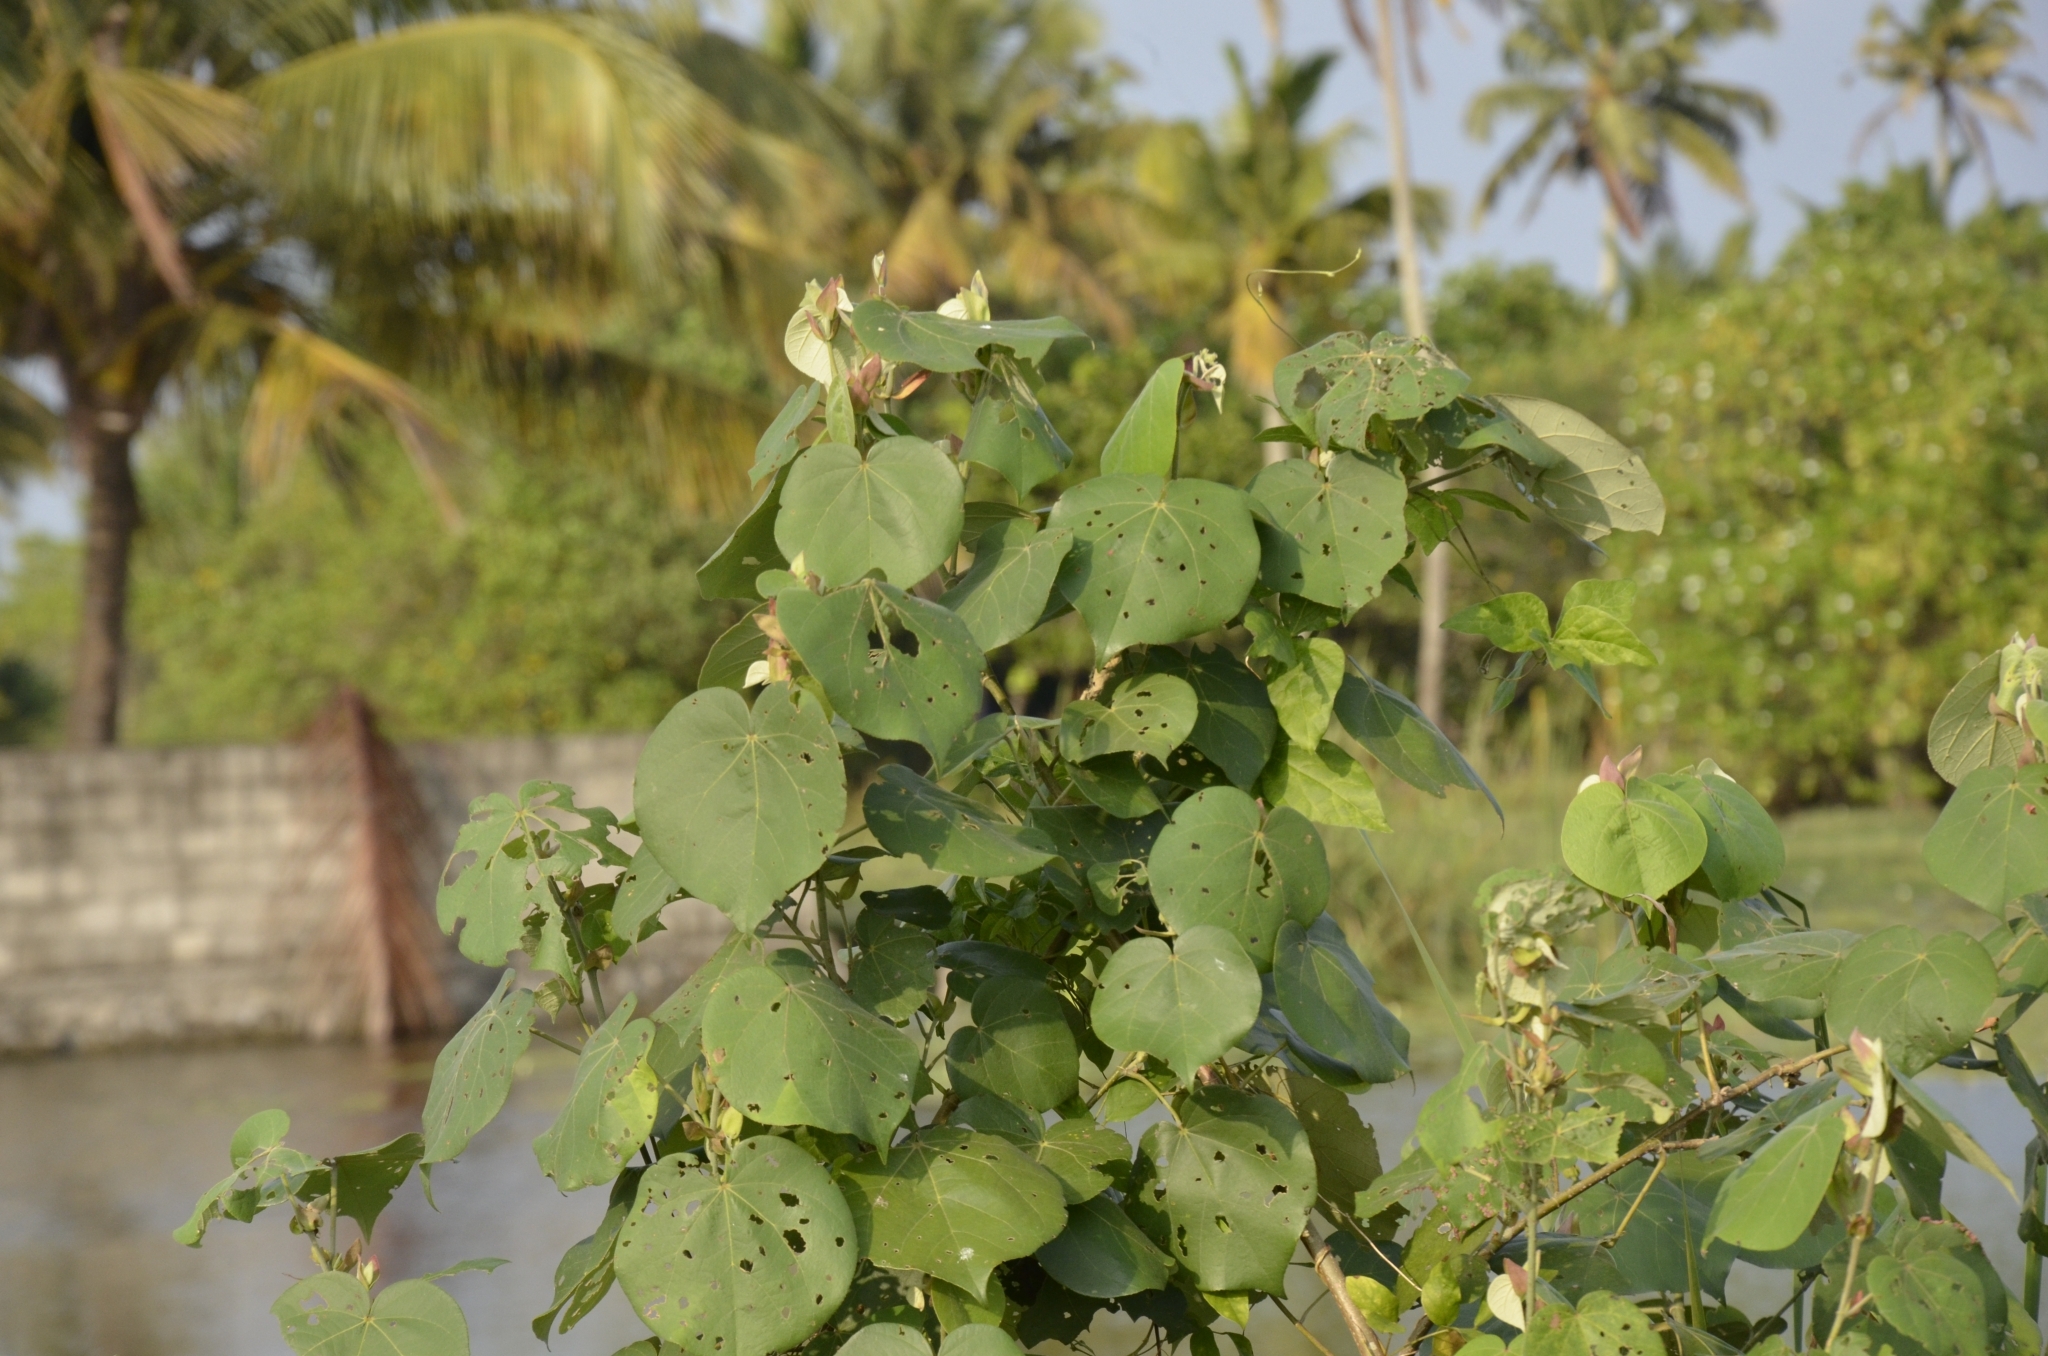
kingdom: Plantae
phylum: Tracheophyta
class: Magnoliopsida
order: Malvales
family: Malvaceae
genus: Talipariti
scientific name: Talipariti tiliaceum
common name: Sea hibiscus
